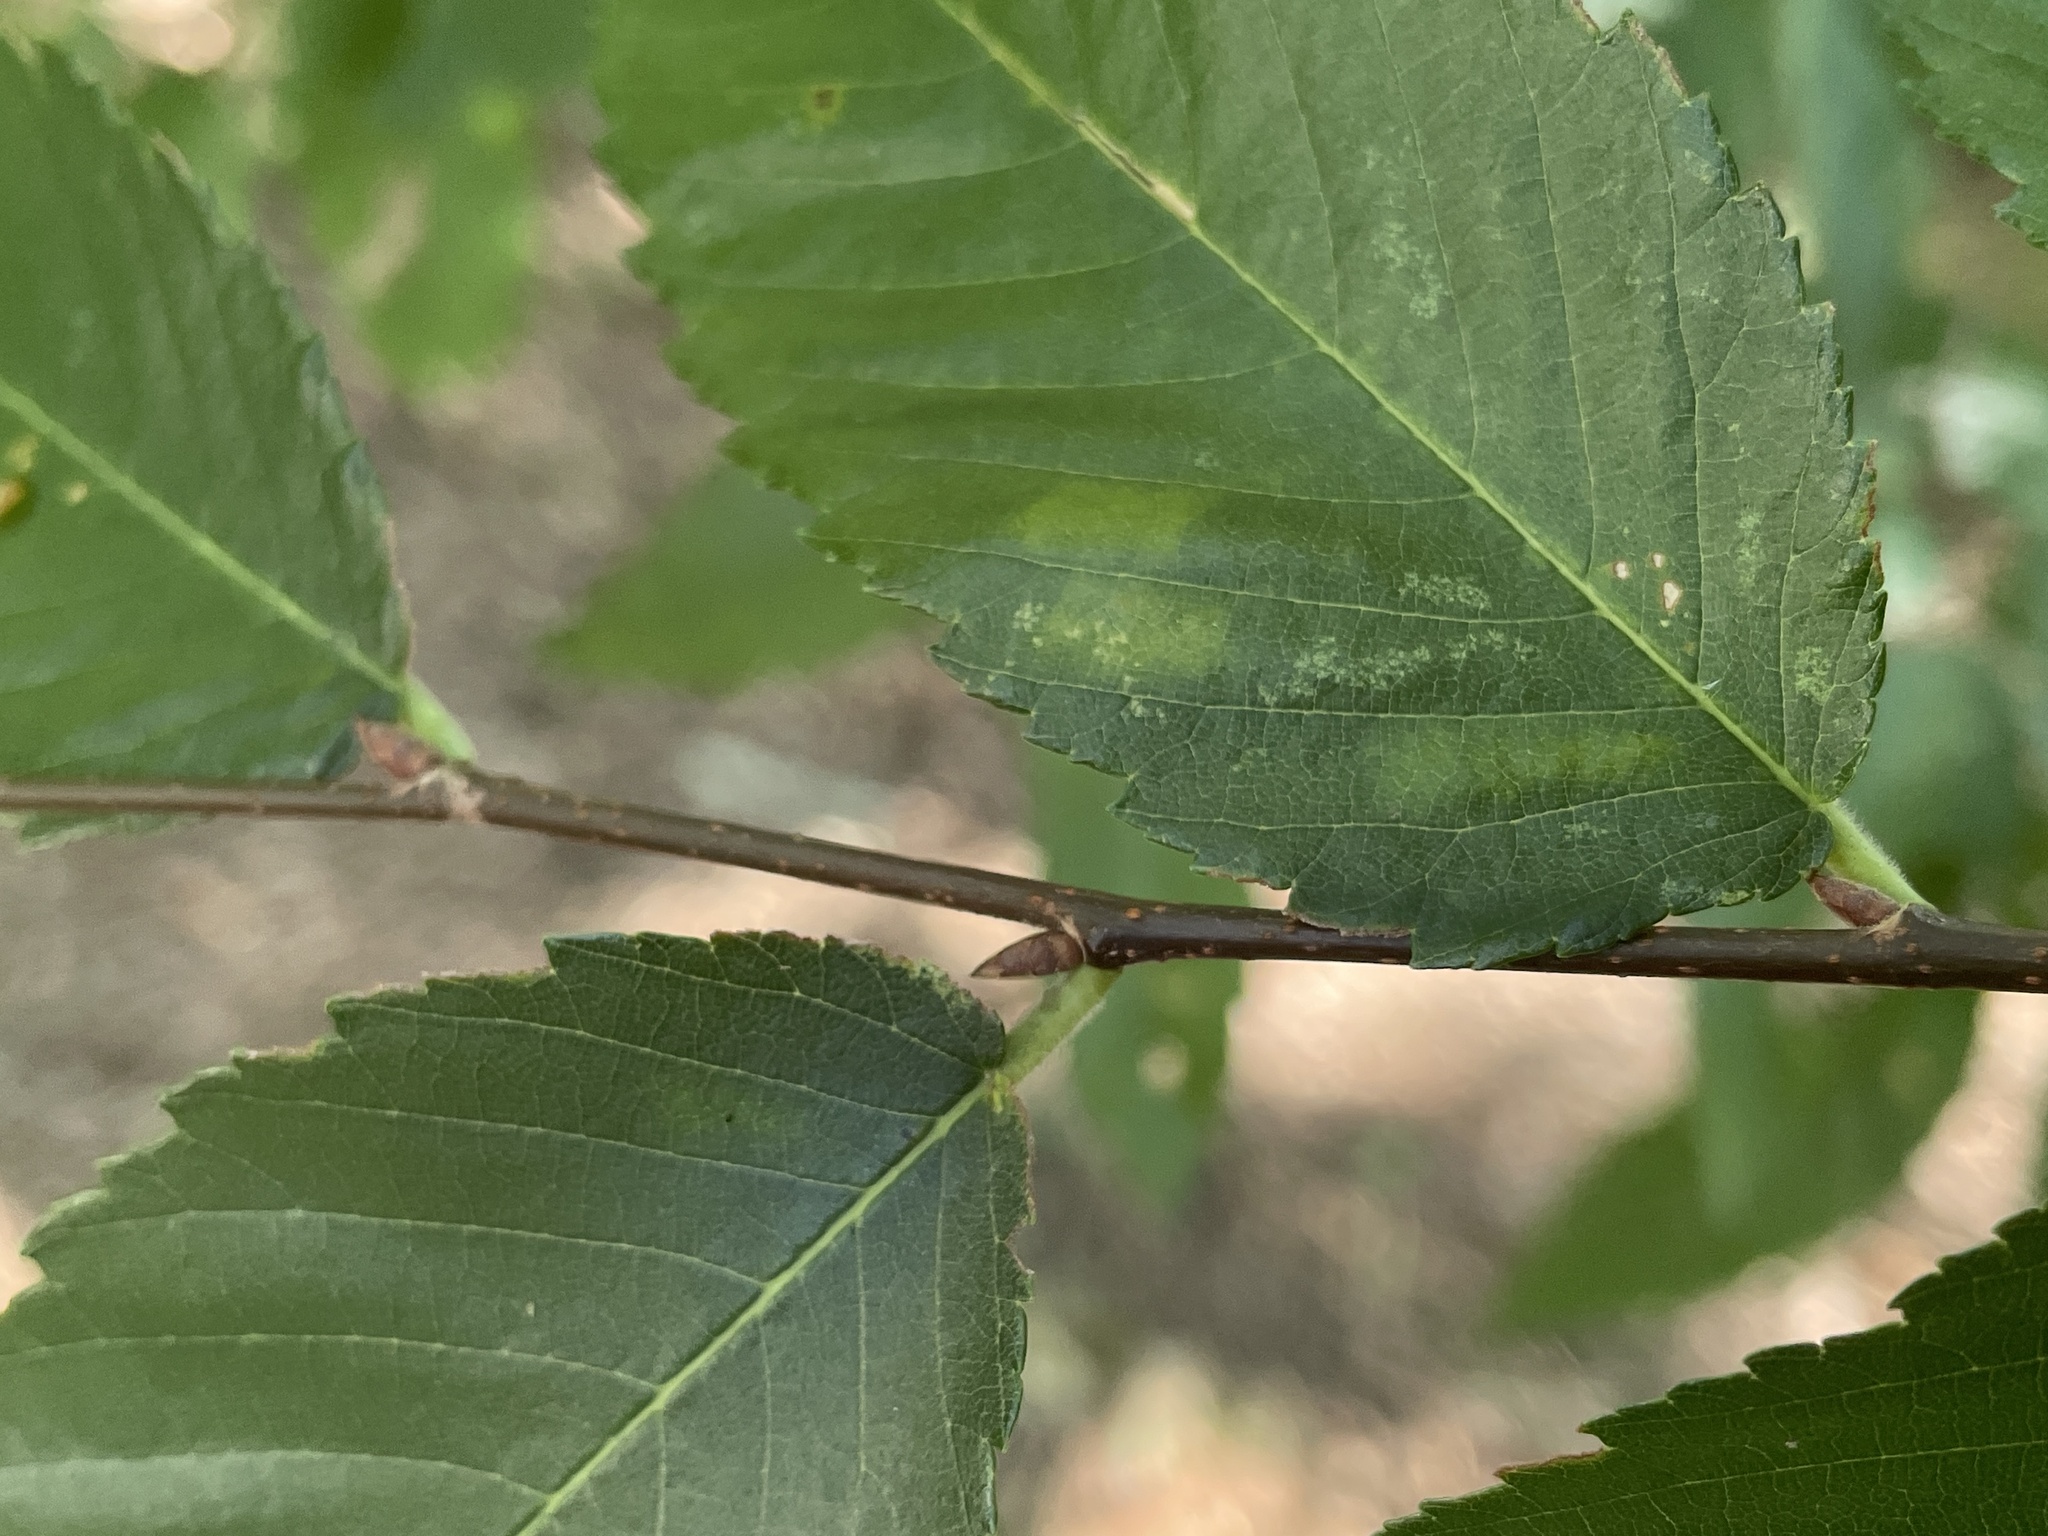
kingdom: Animalia
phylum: Arthropoda
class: Arachnida
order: Trombidiformes
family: Eriophyidae
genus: Aceria
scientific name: Aceria
